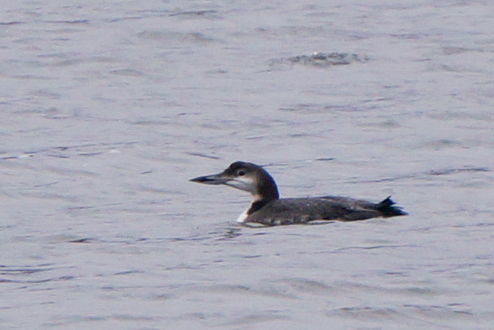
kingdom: Animalia
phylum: Chordata
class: Aves
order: Gaviiformes
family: Gaviidae
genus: Gavia
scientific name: Gavia immer
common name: Common loon
